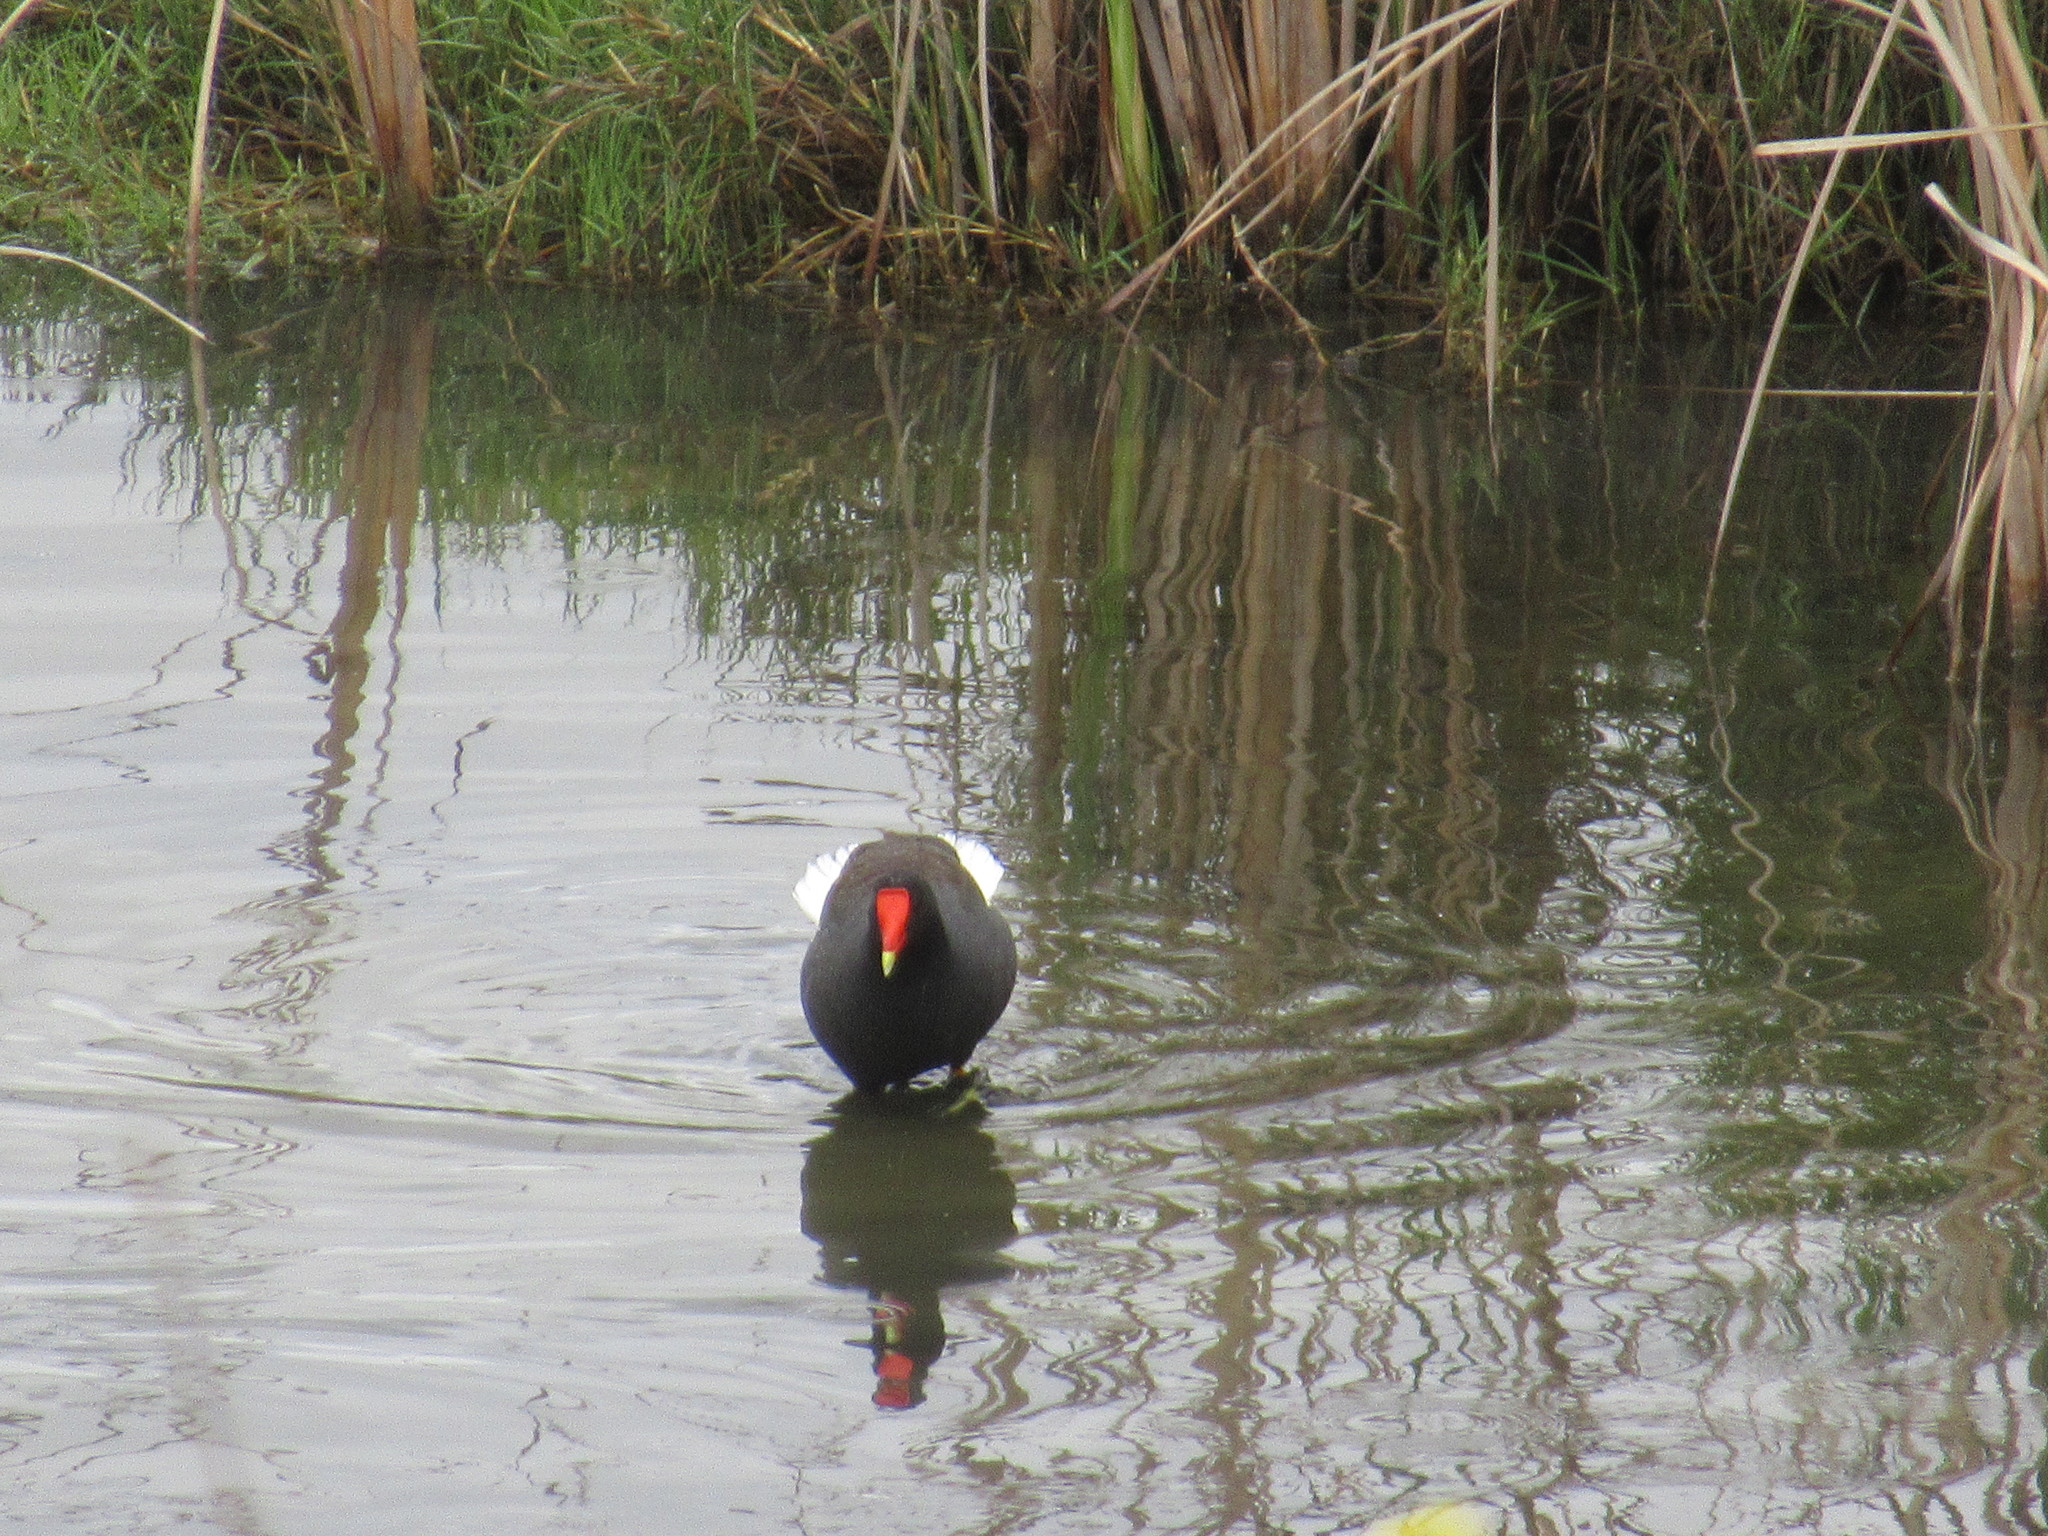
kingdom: Animalia
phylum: Chordata
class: Aves
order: Gruiformes
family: Rallidae
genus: Gallinula
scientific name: Gallinula chloropus
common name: Common moorhen
